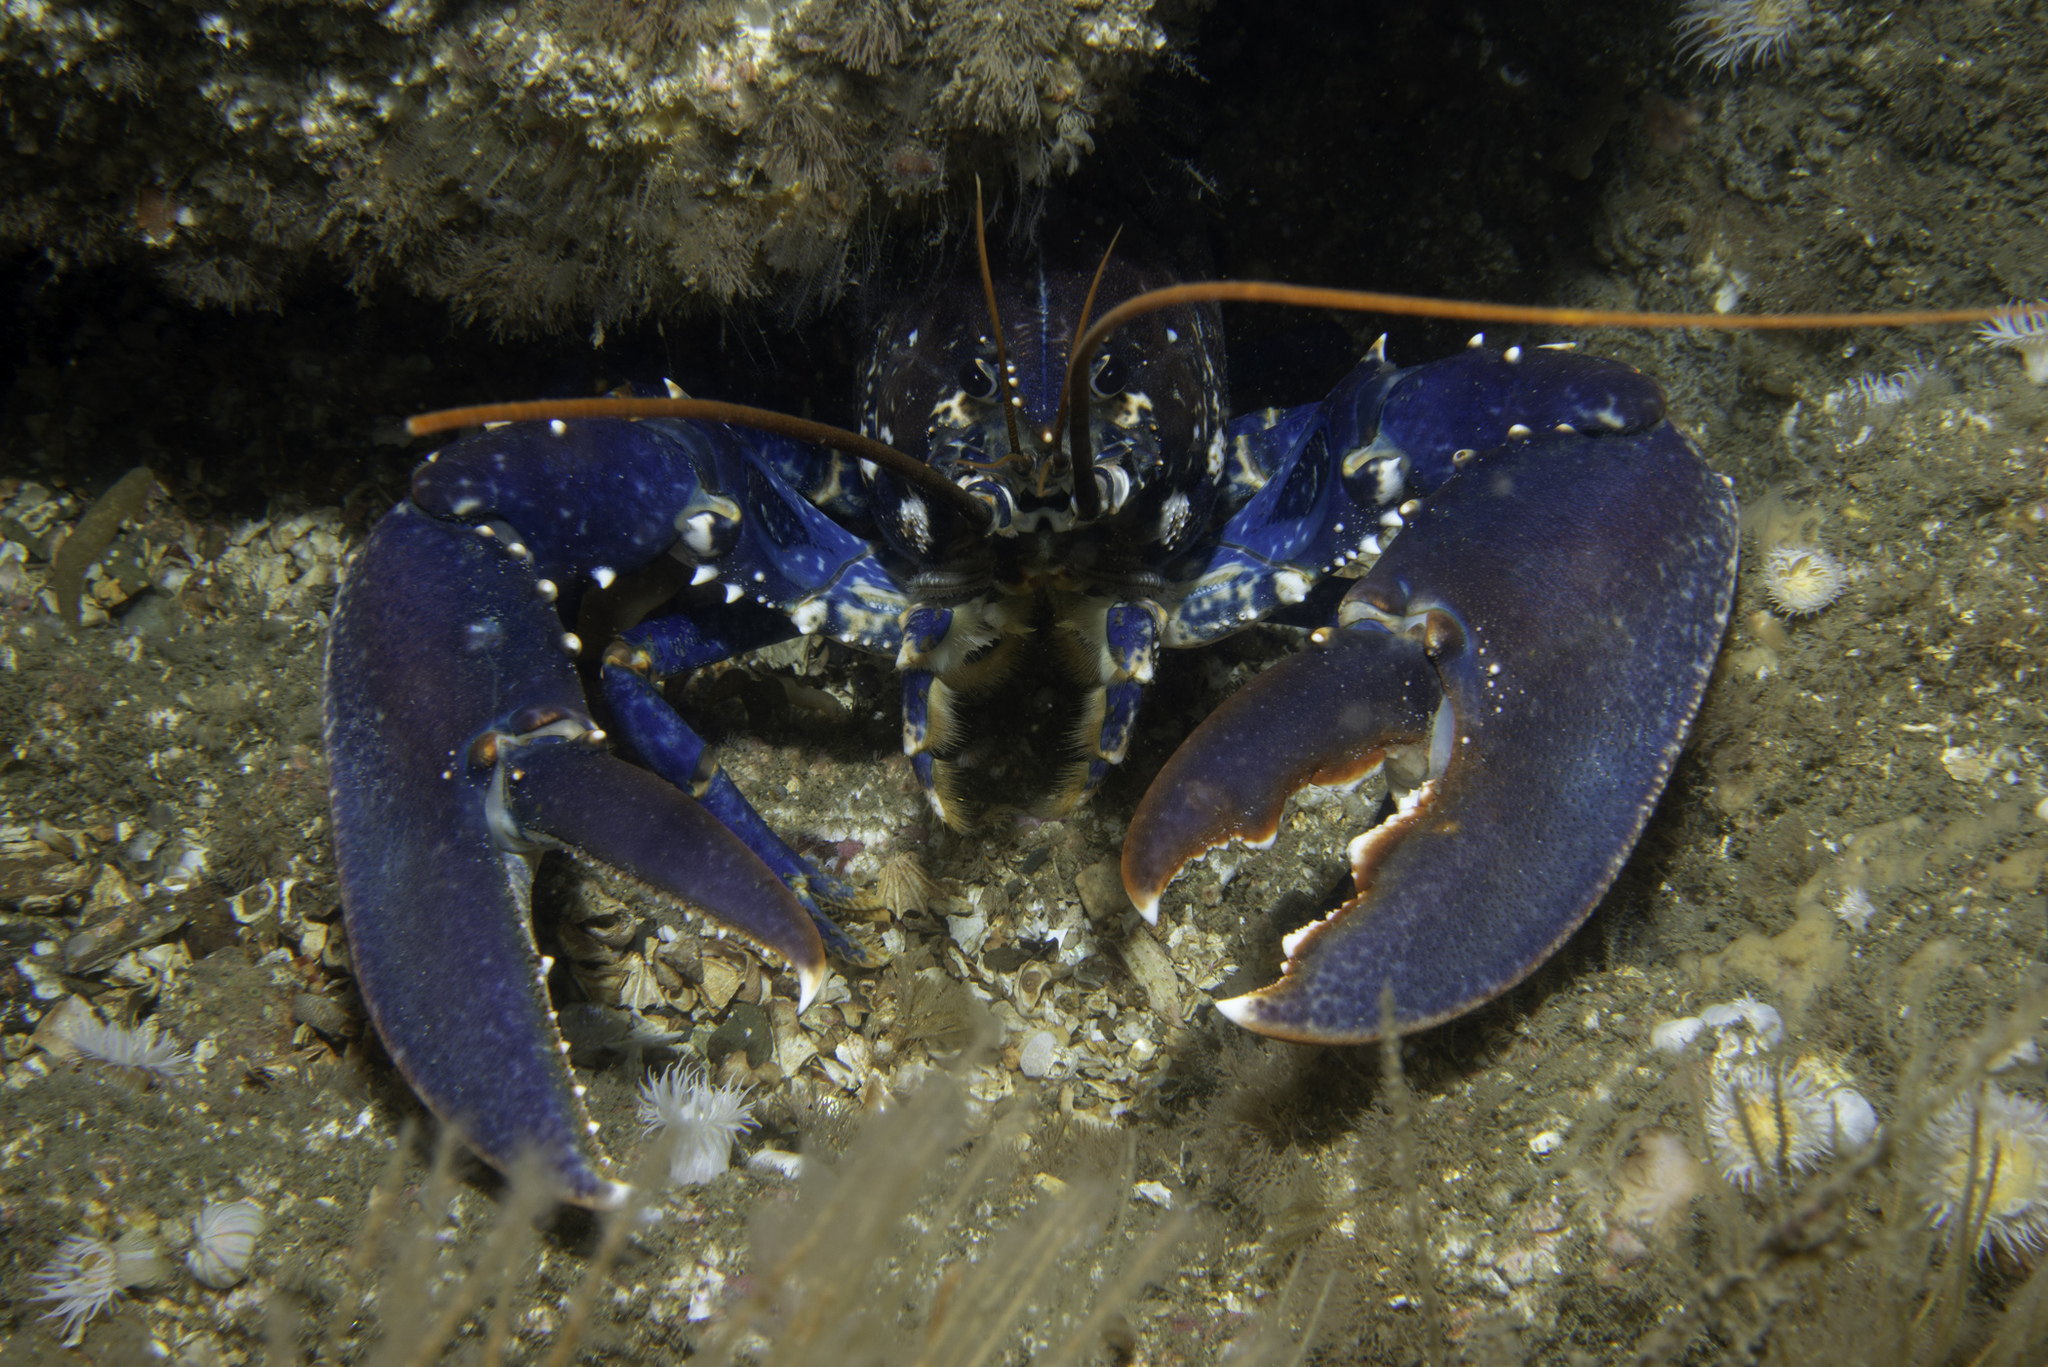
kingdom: Animalia
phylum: Arthropoda
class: Malacostraca
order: Decapoda
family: Nephropidae
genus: Homarus
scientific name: Homarus gammarus
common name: European lobster
